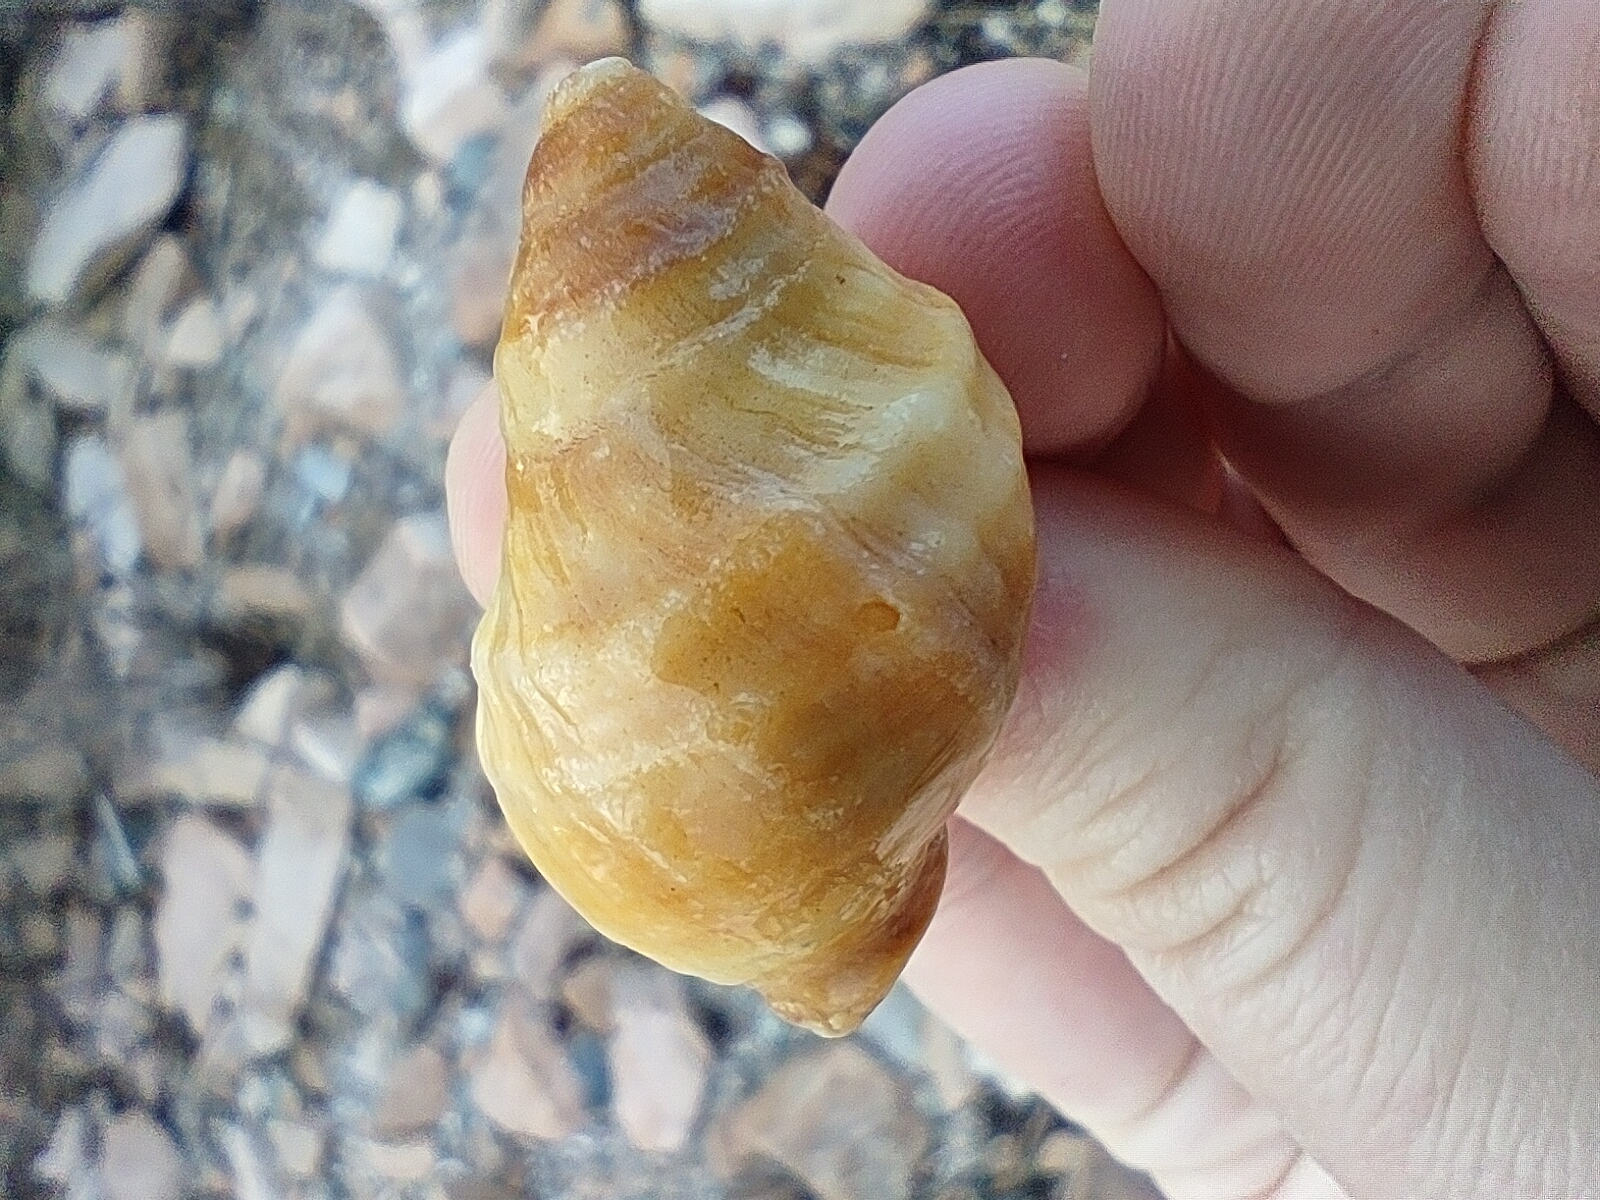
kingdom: Animalia
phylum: Mollusca
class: Gastropoda
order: Neogastropoda
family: Muricidae
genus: Nucella
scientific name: Nucella lapillus
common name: Dog whelk
